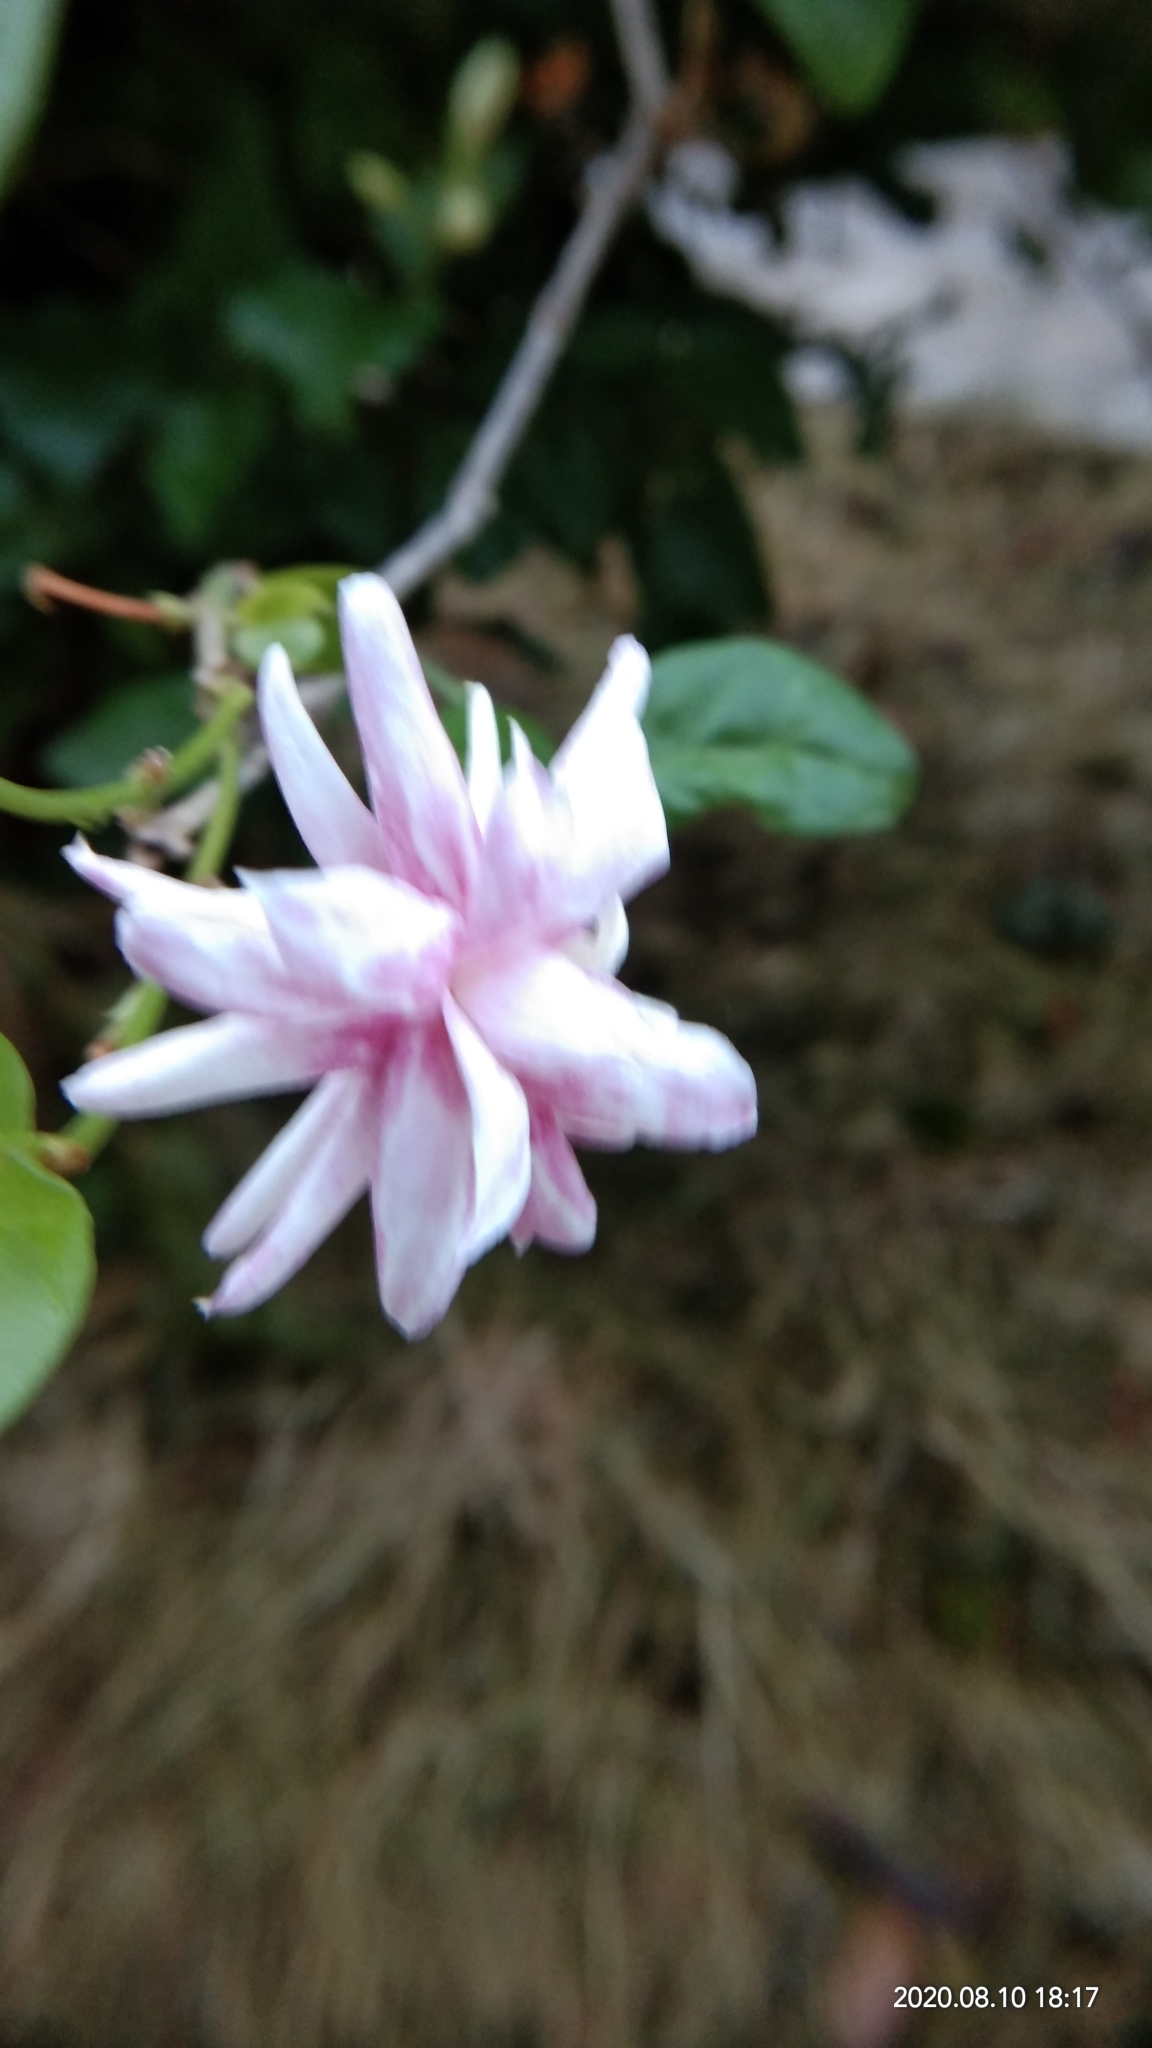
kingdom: Plantae
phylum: Tracheophyta
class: Magnoliopsida
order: Lamiales
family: Oleaceae
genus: Jasminum
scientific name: Jasminum sambac
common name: Arabian jasmine
